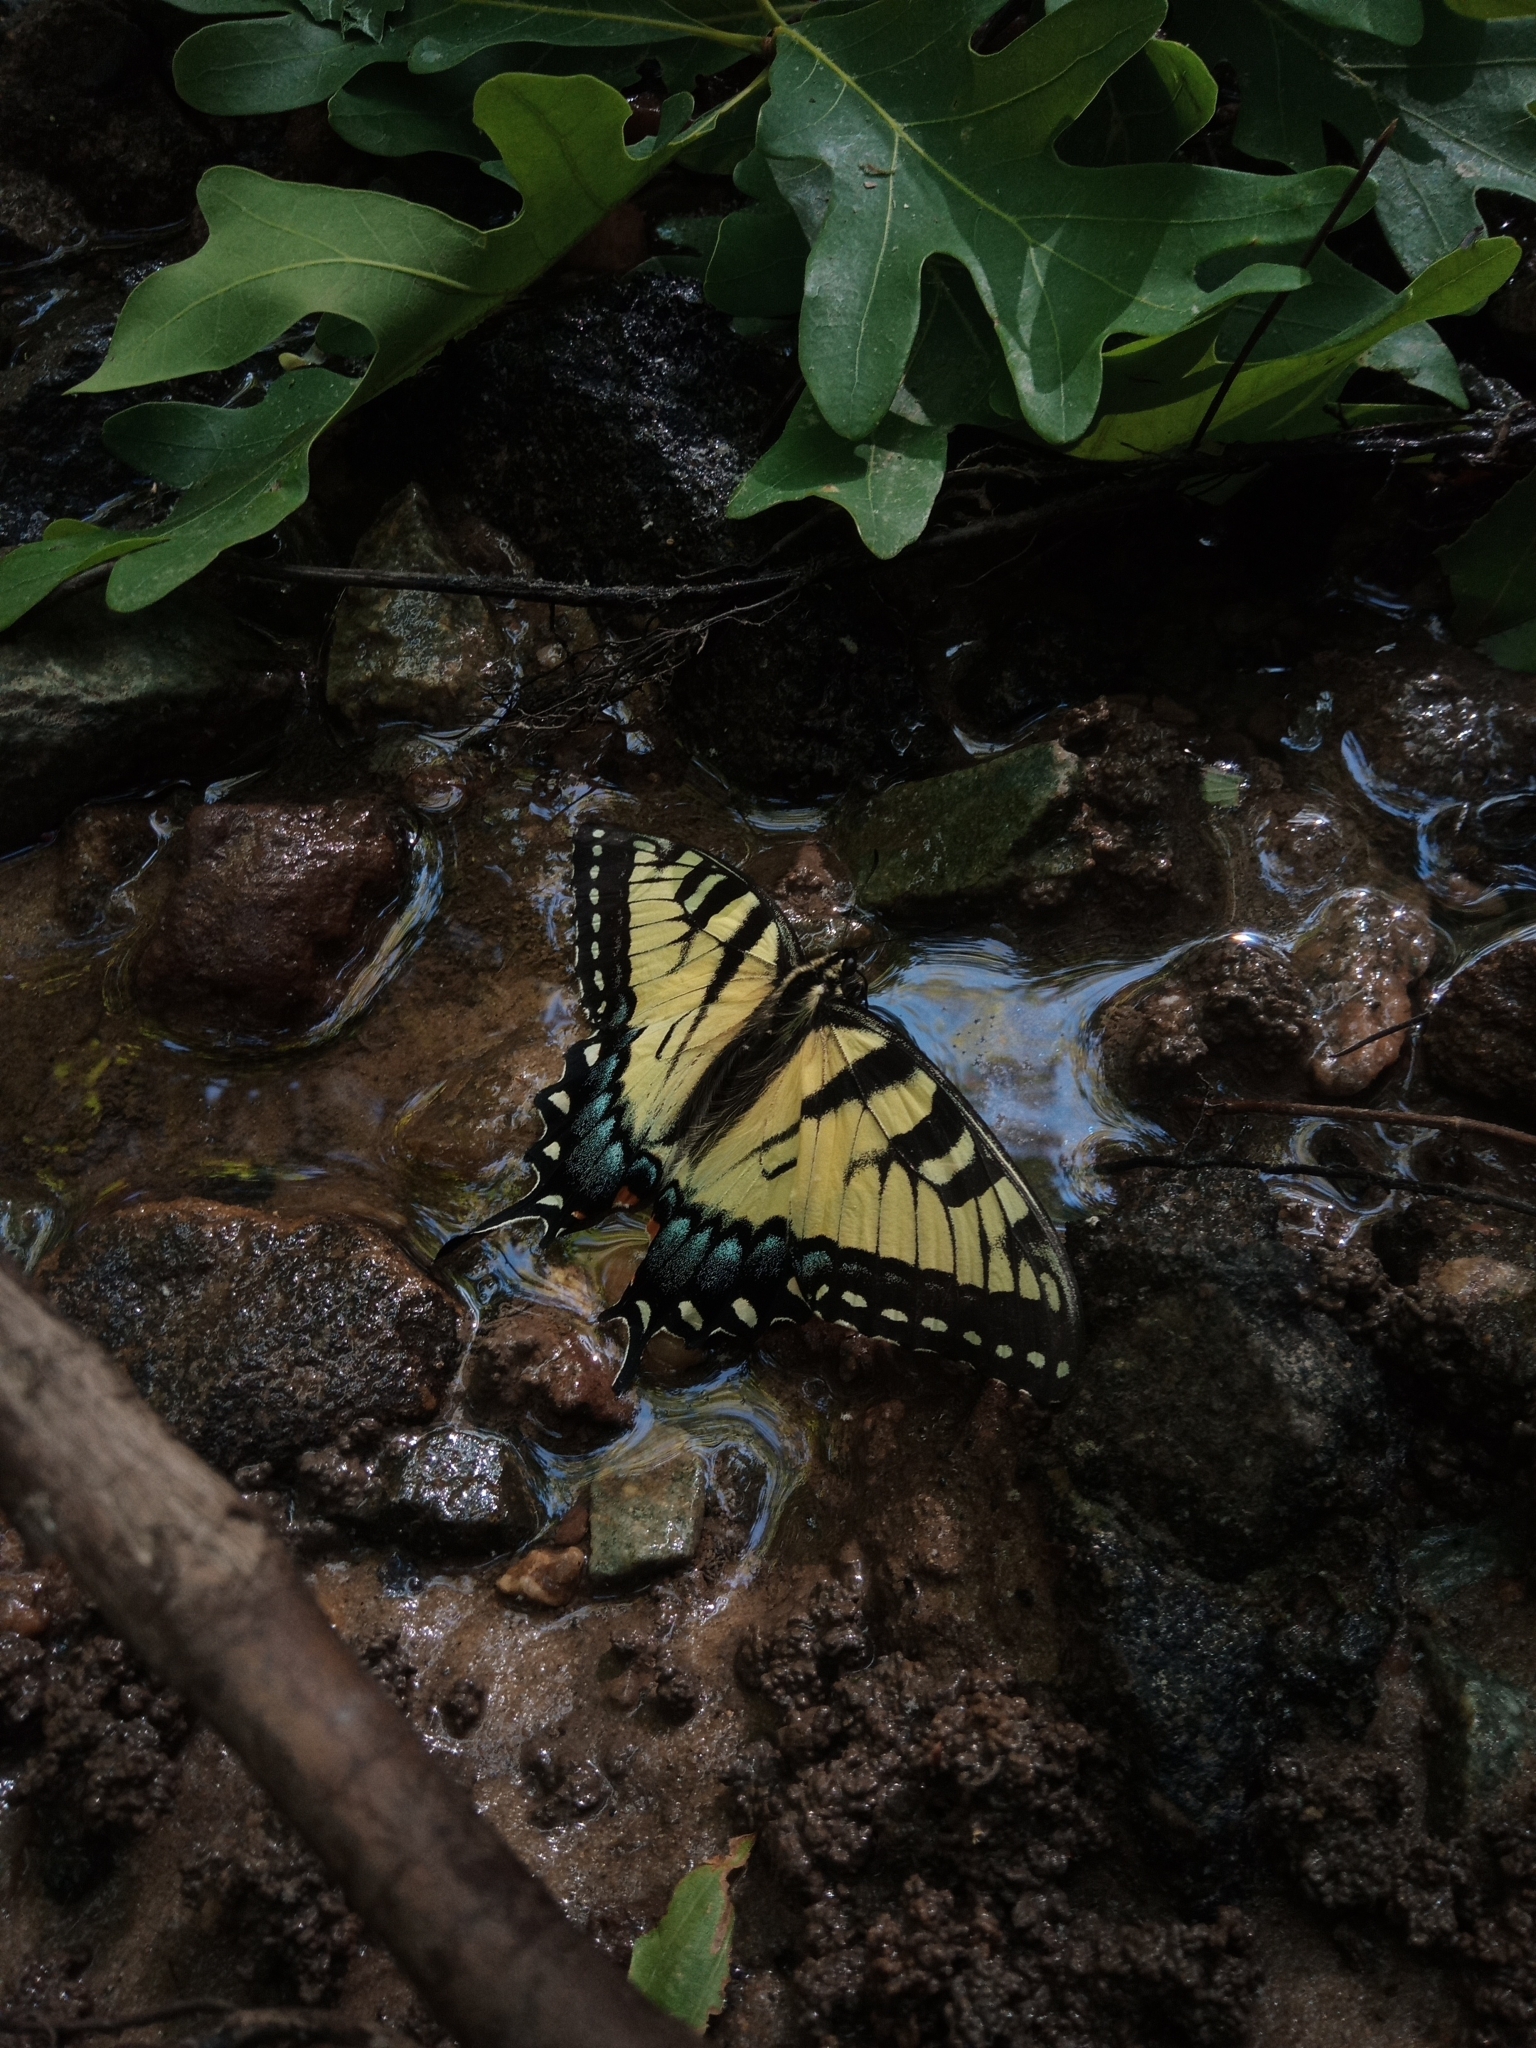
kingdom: Animalia
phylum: Arthropoda
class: Insecta
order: Lepidoptera
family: Papilionidae
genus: Papilio
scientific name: Papilio glaucus
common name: Tiger swallowtail
